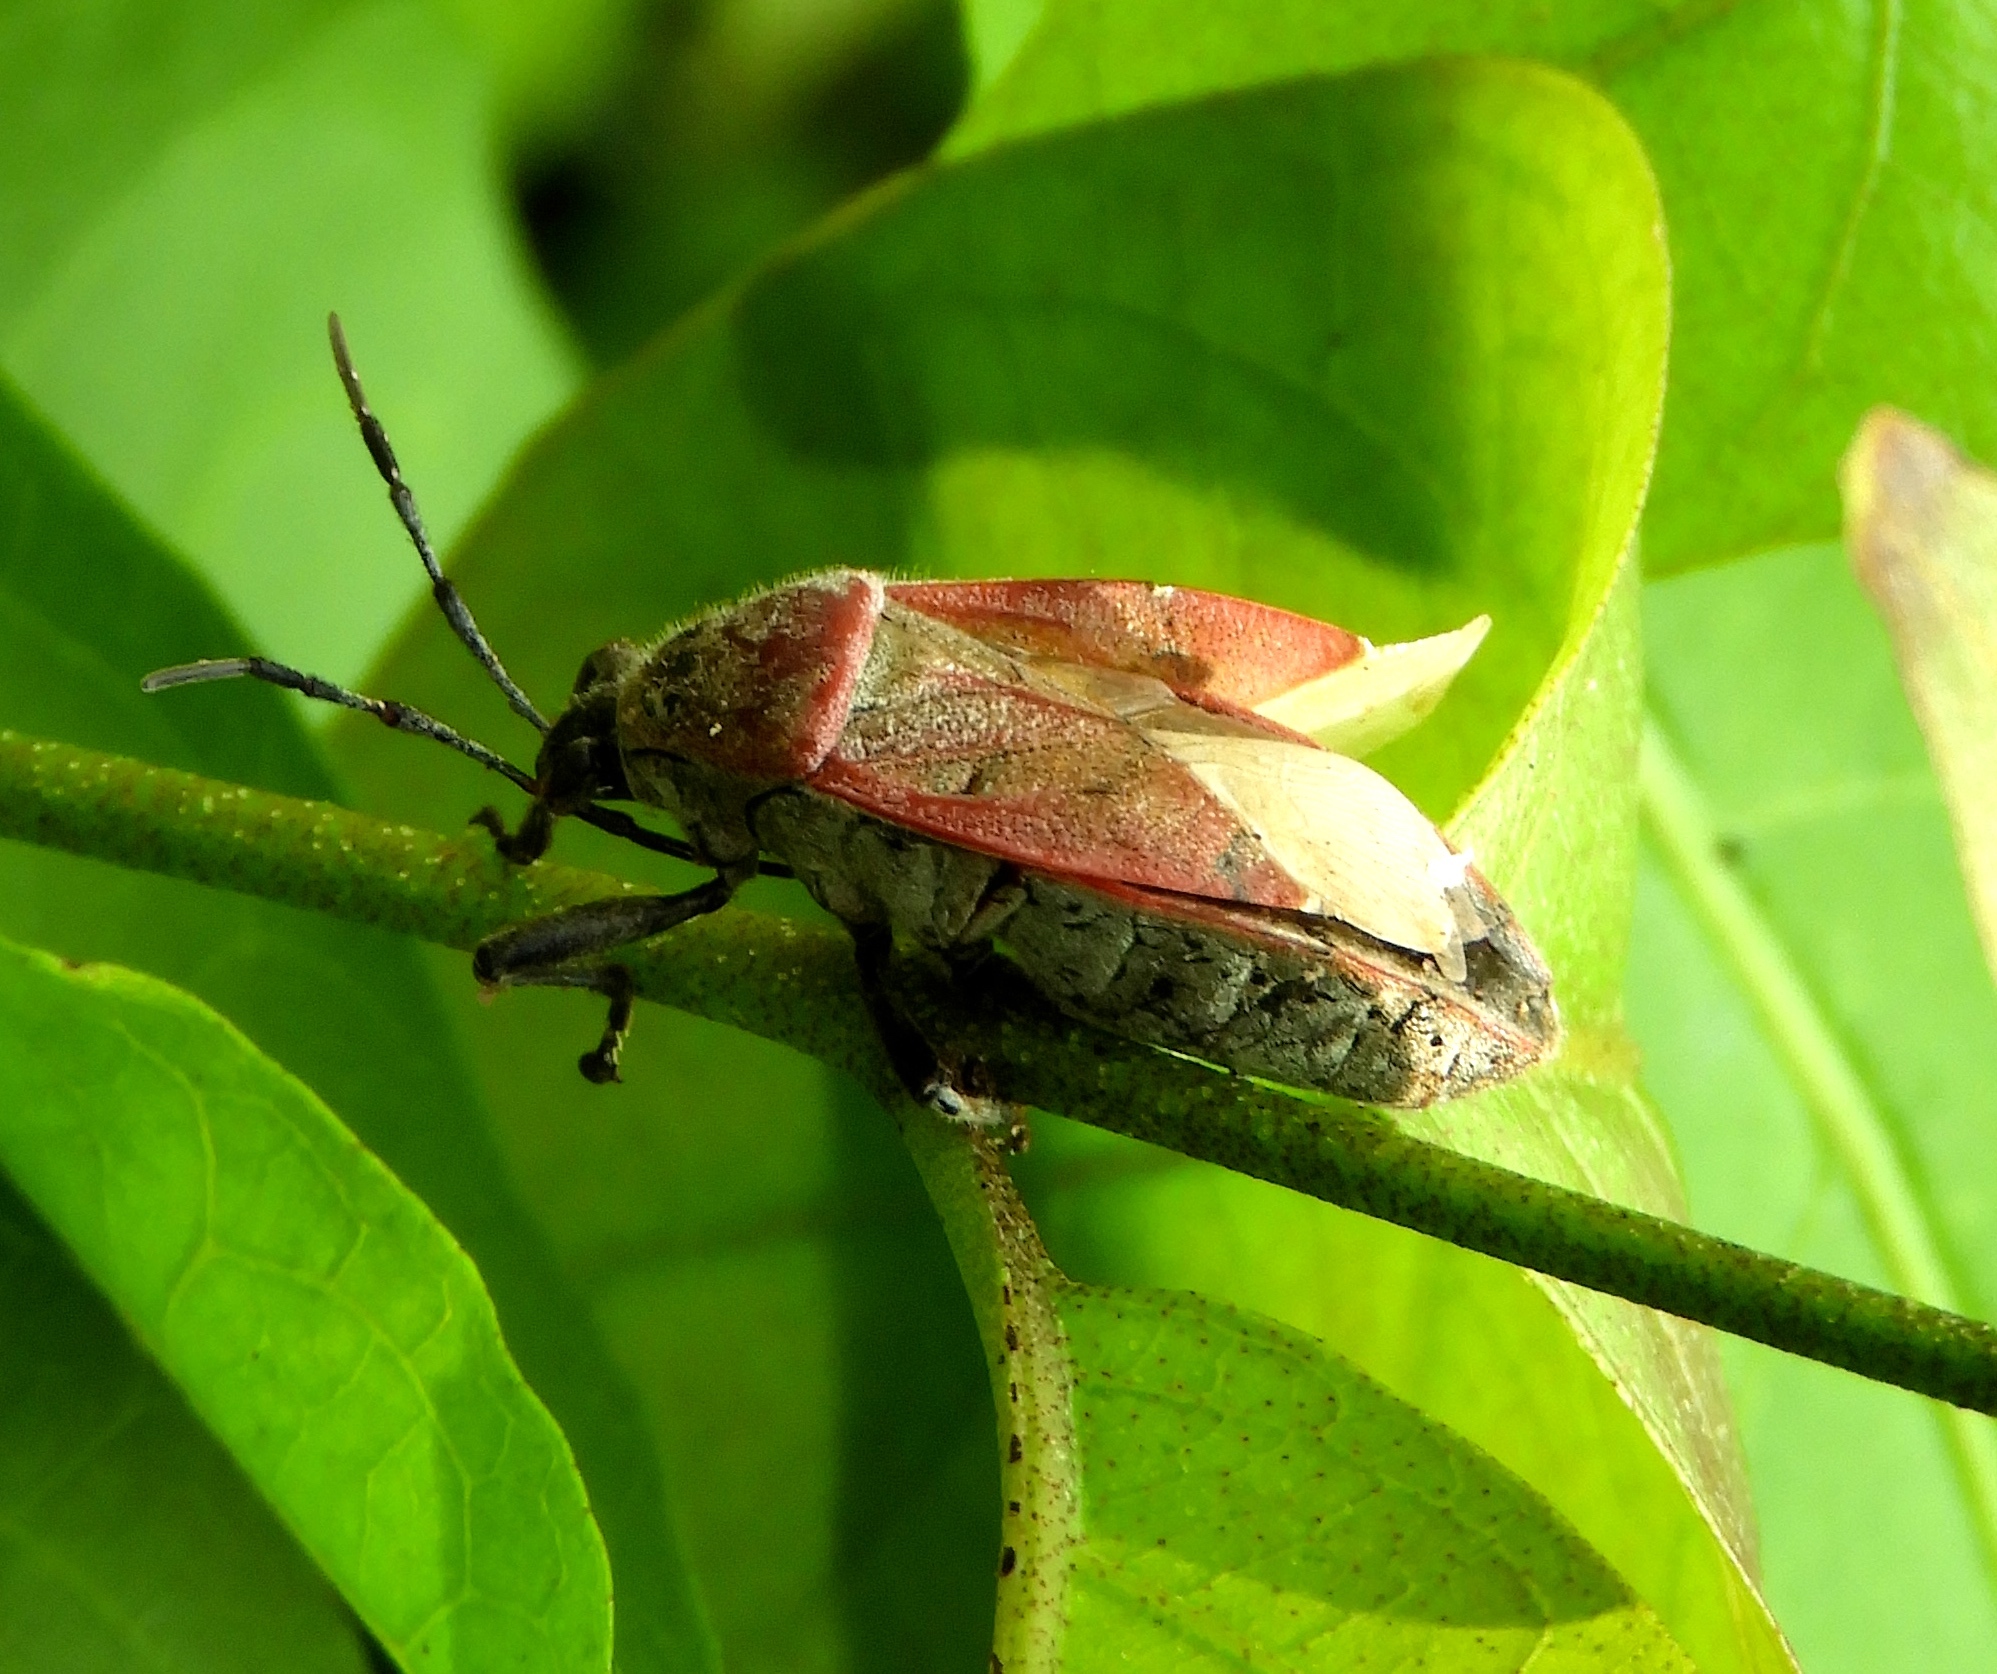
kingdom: Animalia
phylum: Arthropoda
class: Insecta
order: Hemiptera
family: Largidae
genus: Largus
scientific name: Largus
